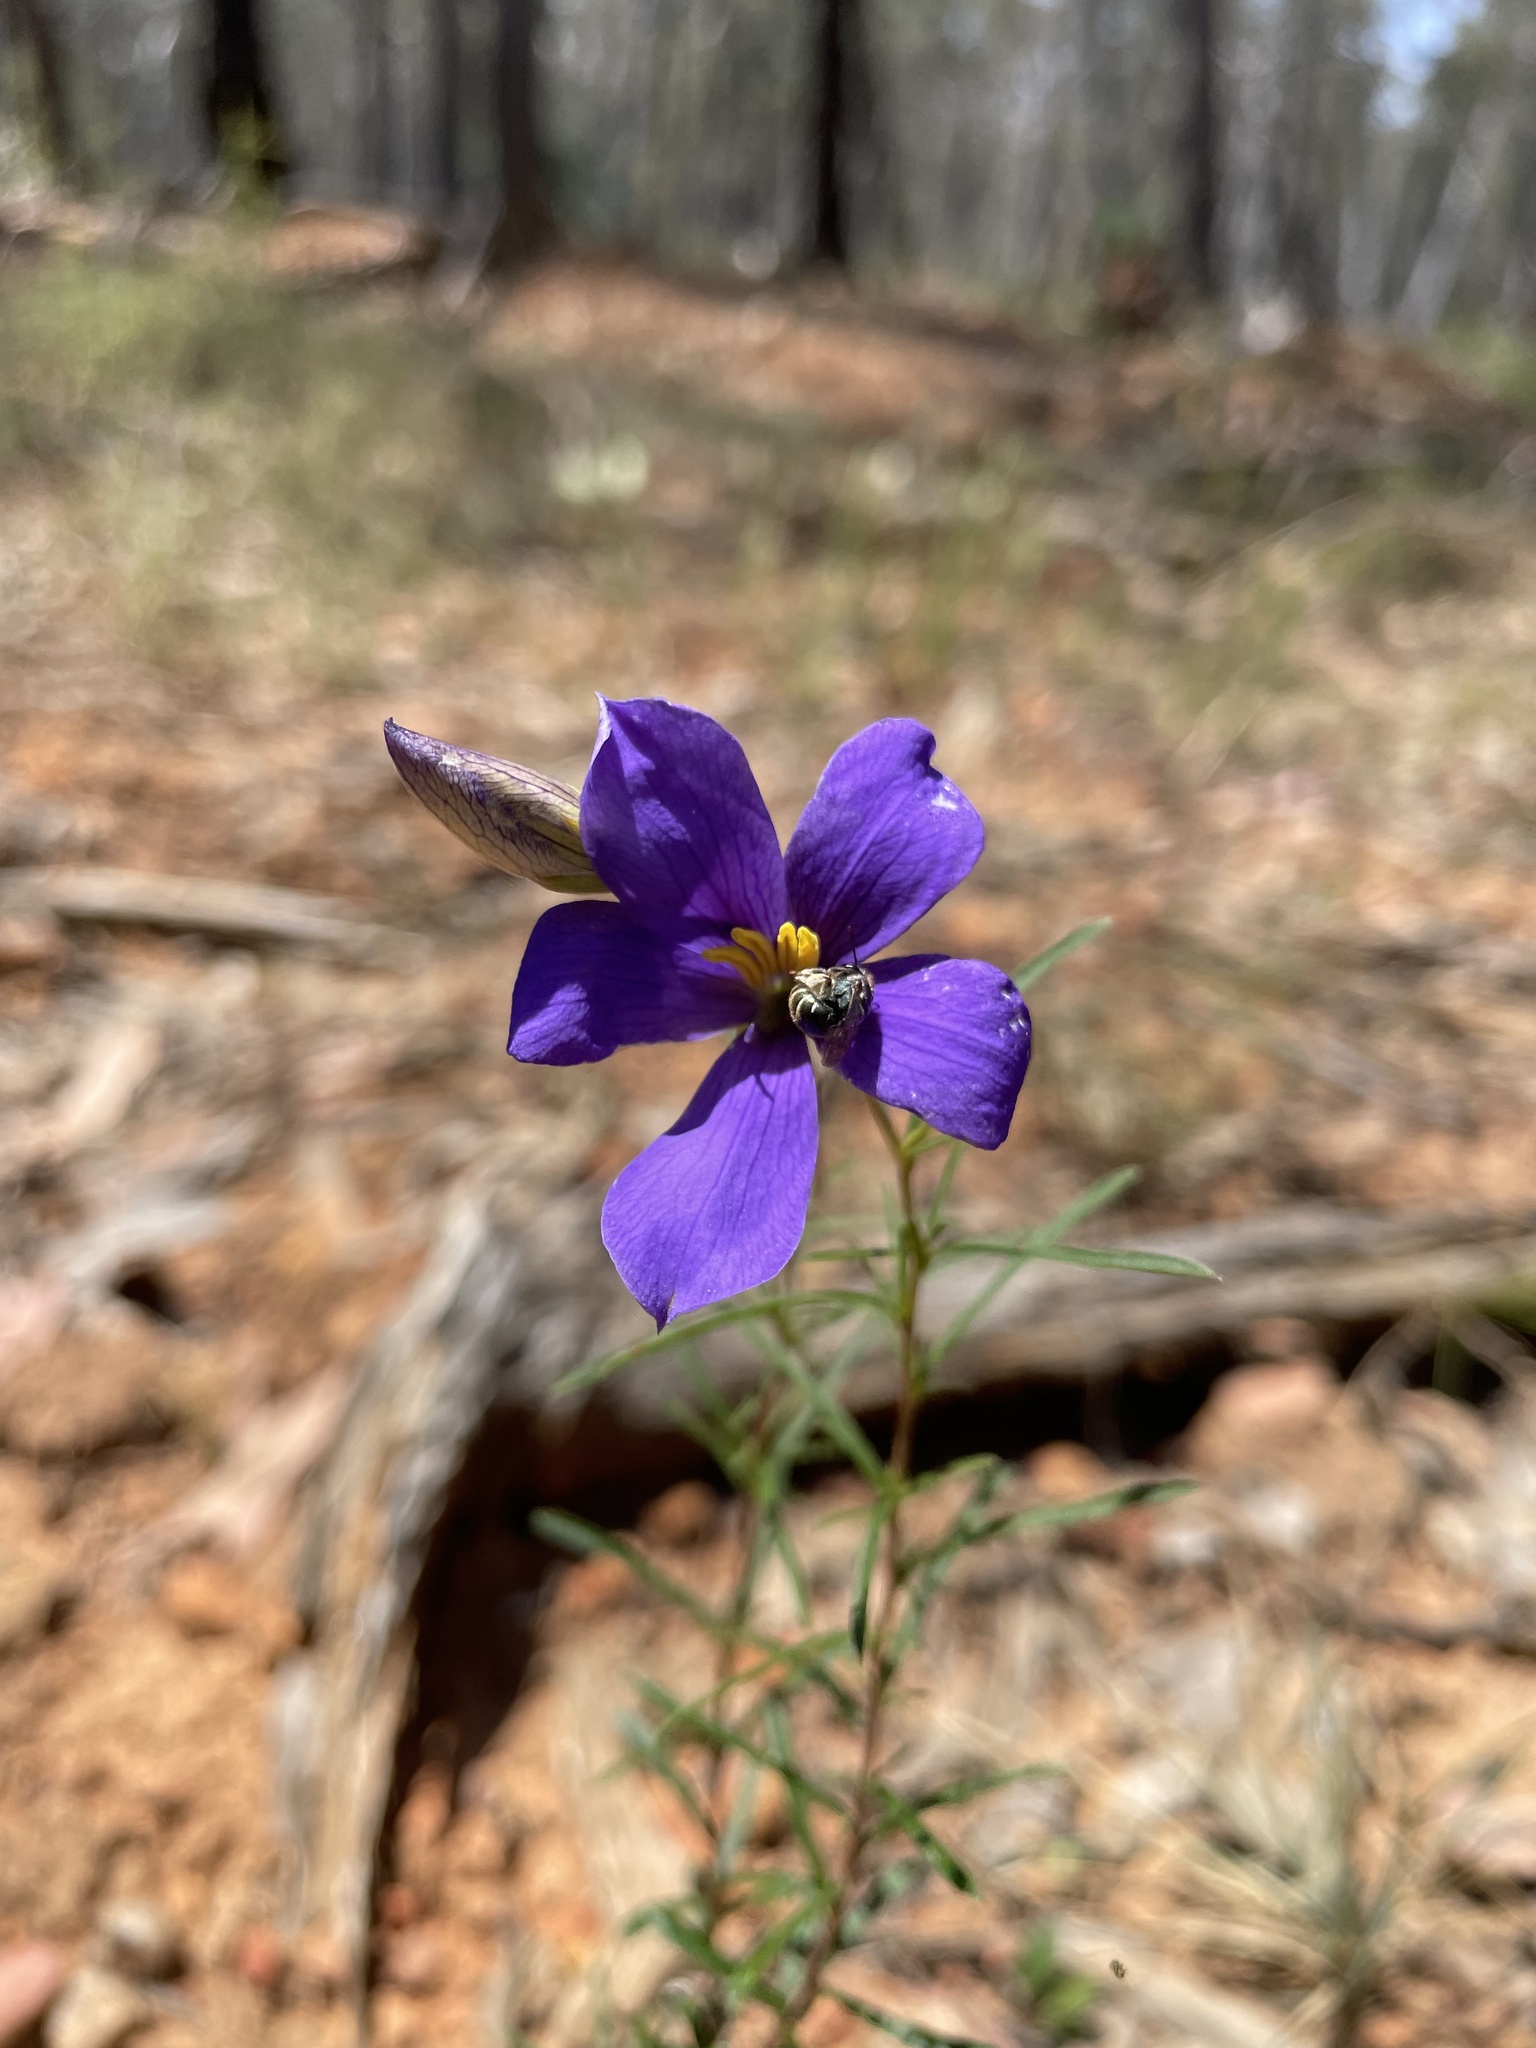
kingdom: Plantae
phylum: Tracheophyta
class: Magnoliopsida
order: Apiales
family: Pittosporaceae
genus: Cheiranthera
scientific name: Cheiranthera linearis
